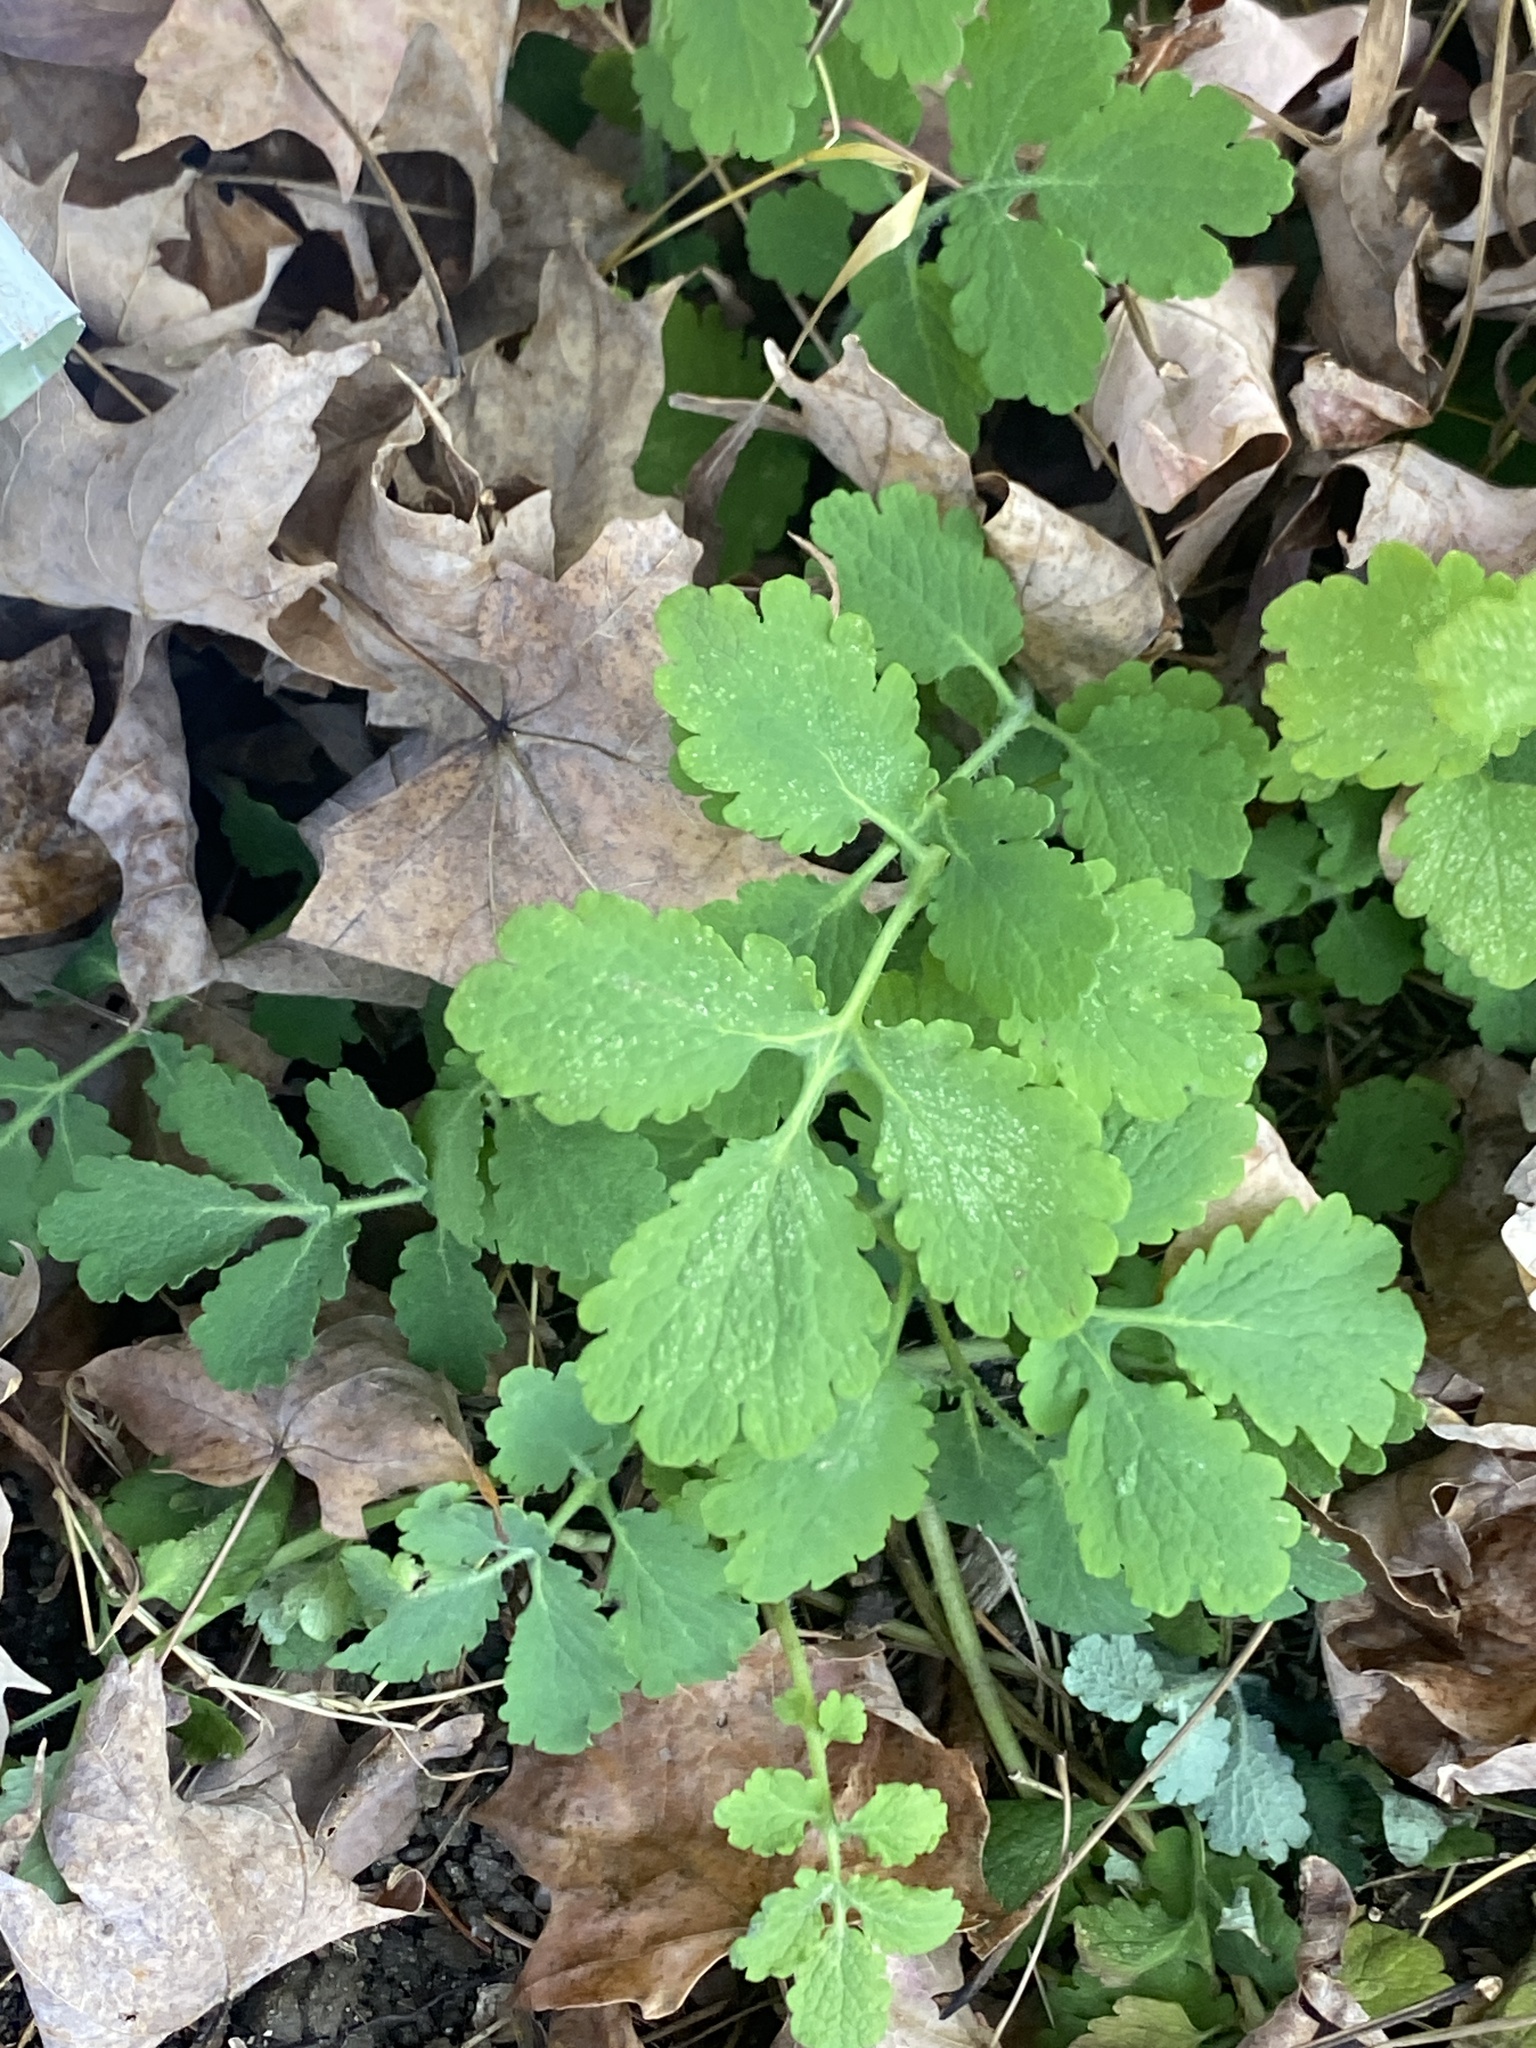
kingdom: Plantae
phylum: Tracheophyta
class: Magnoliopsida
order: Ranunculales
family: Papaveraceae
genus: Chelidonium
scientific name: Chelidonium majus
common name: Greater celandine
